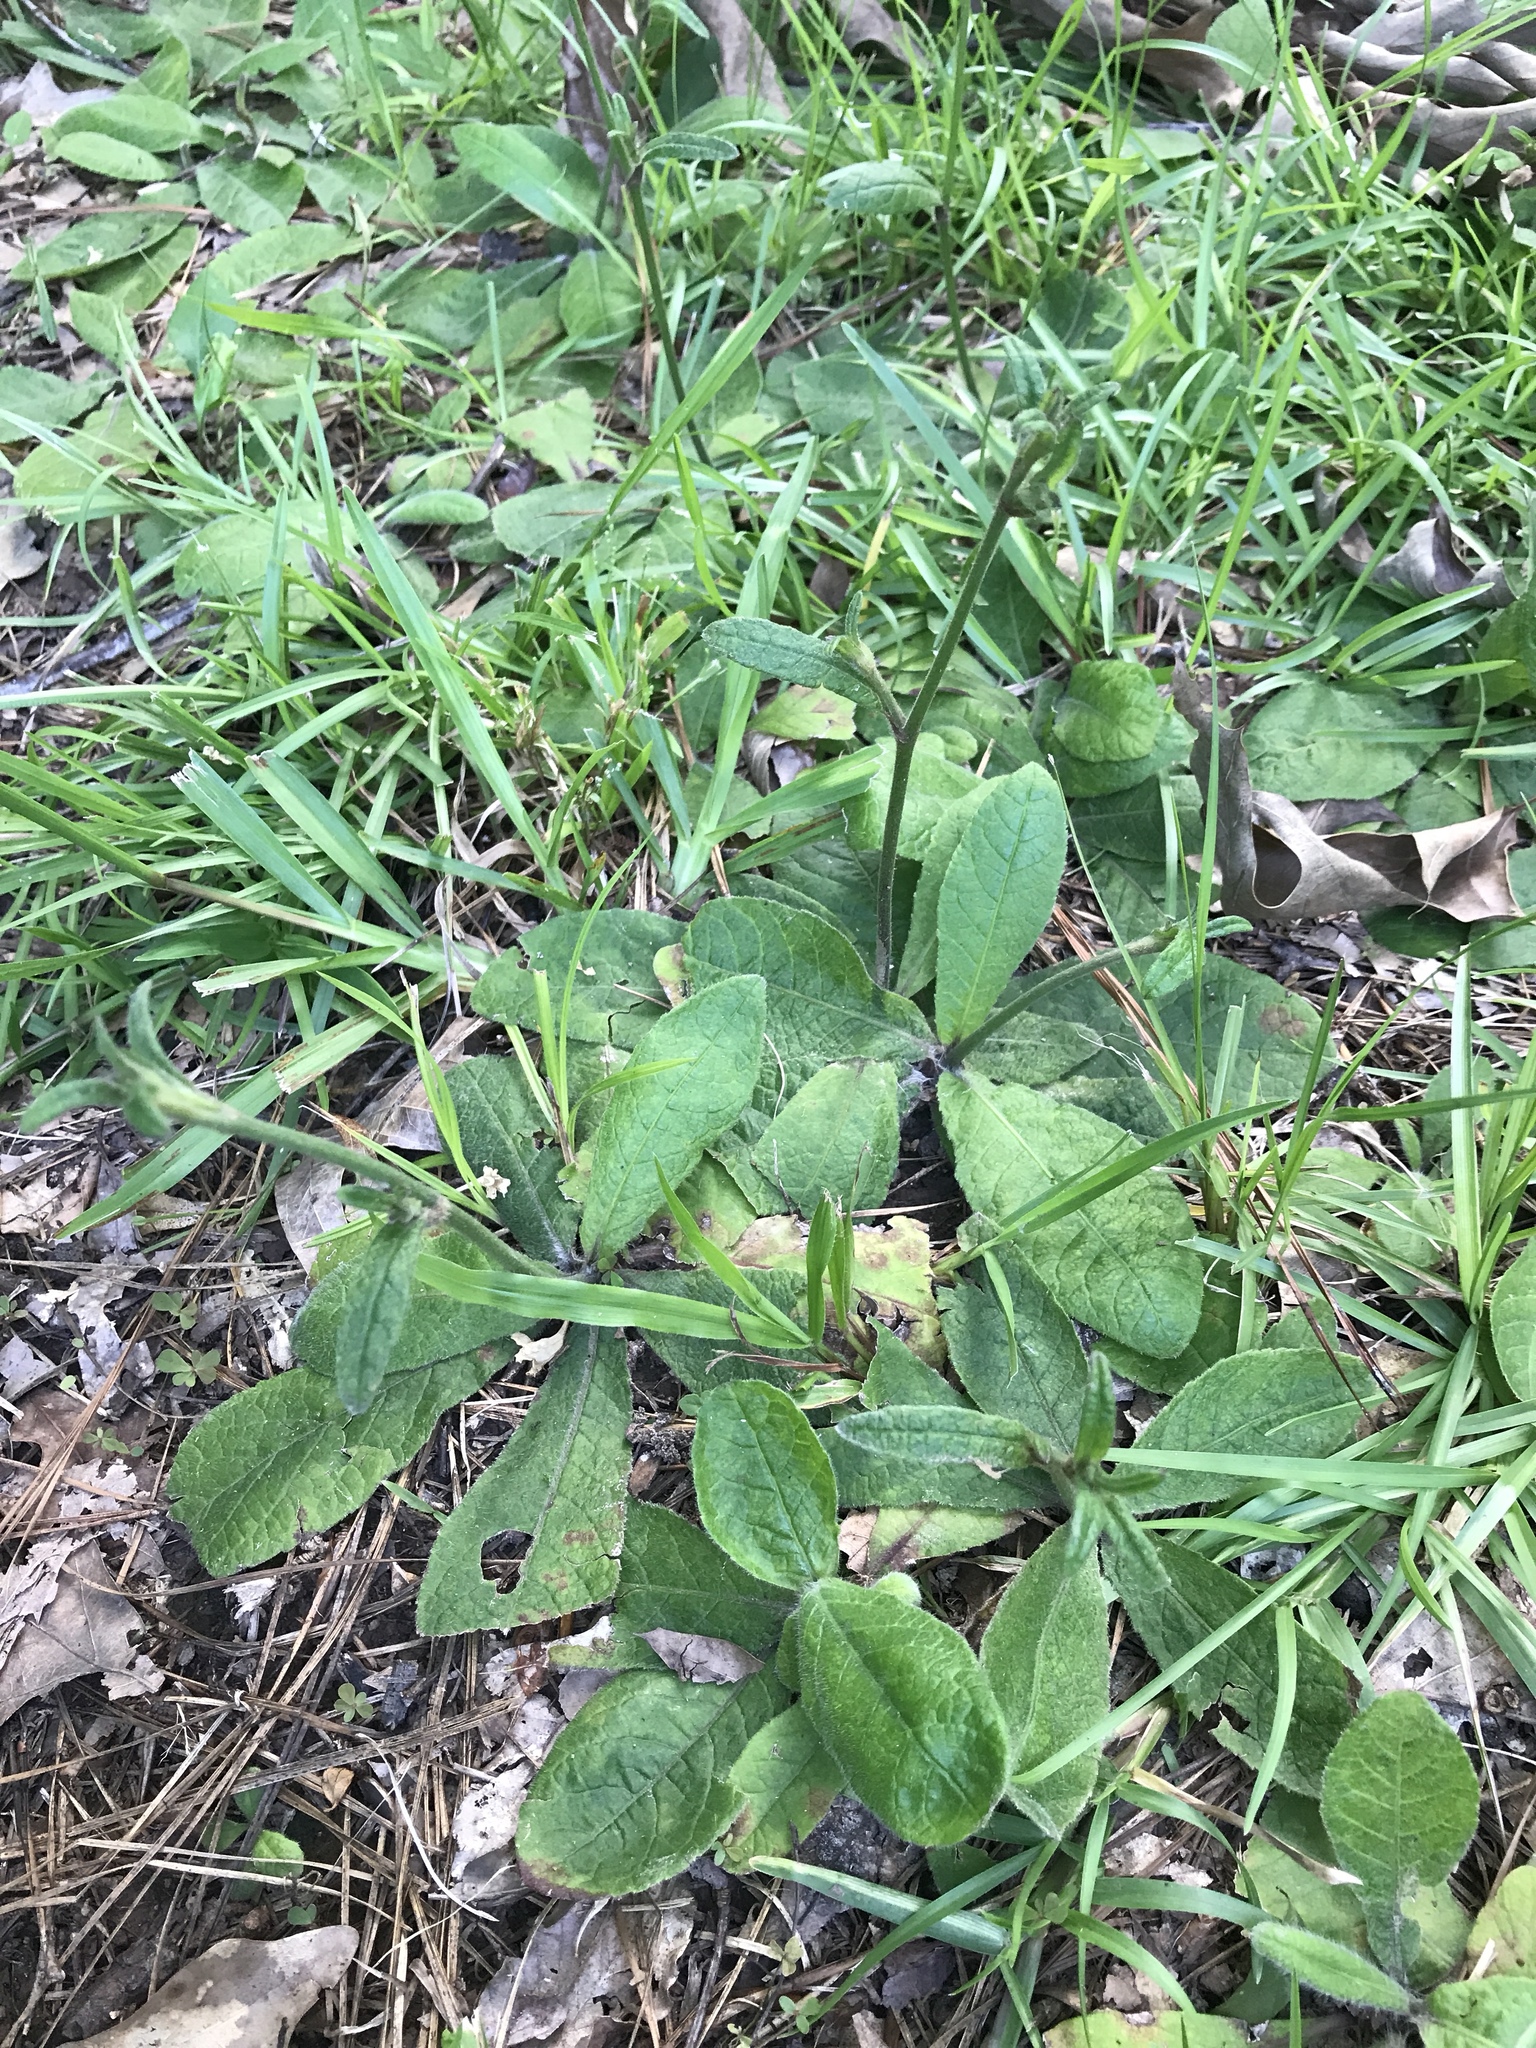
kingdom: Plantae
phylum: Tracheophyta
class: Magnoliopsida
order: Asterales
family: Asteraceae
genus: Elephantopus
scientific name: Elephantopus tomentosus
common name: Tobacco-weed
